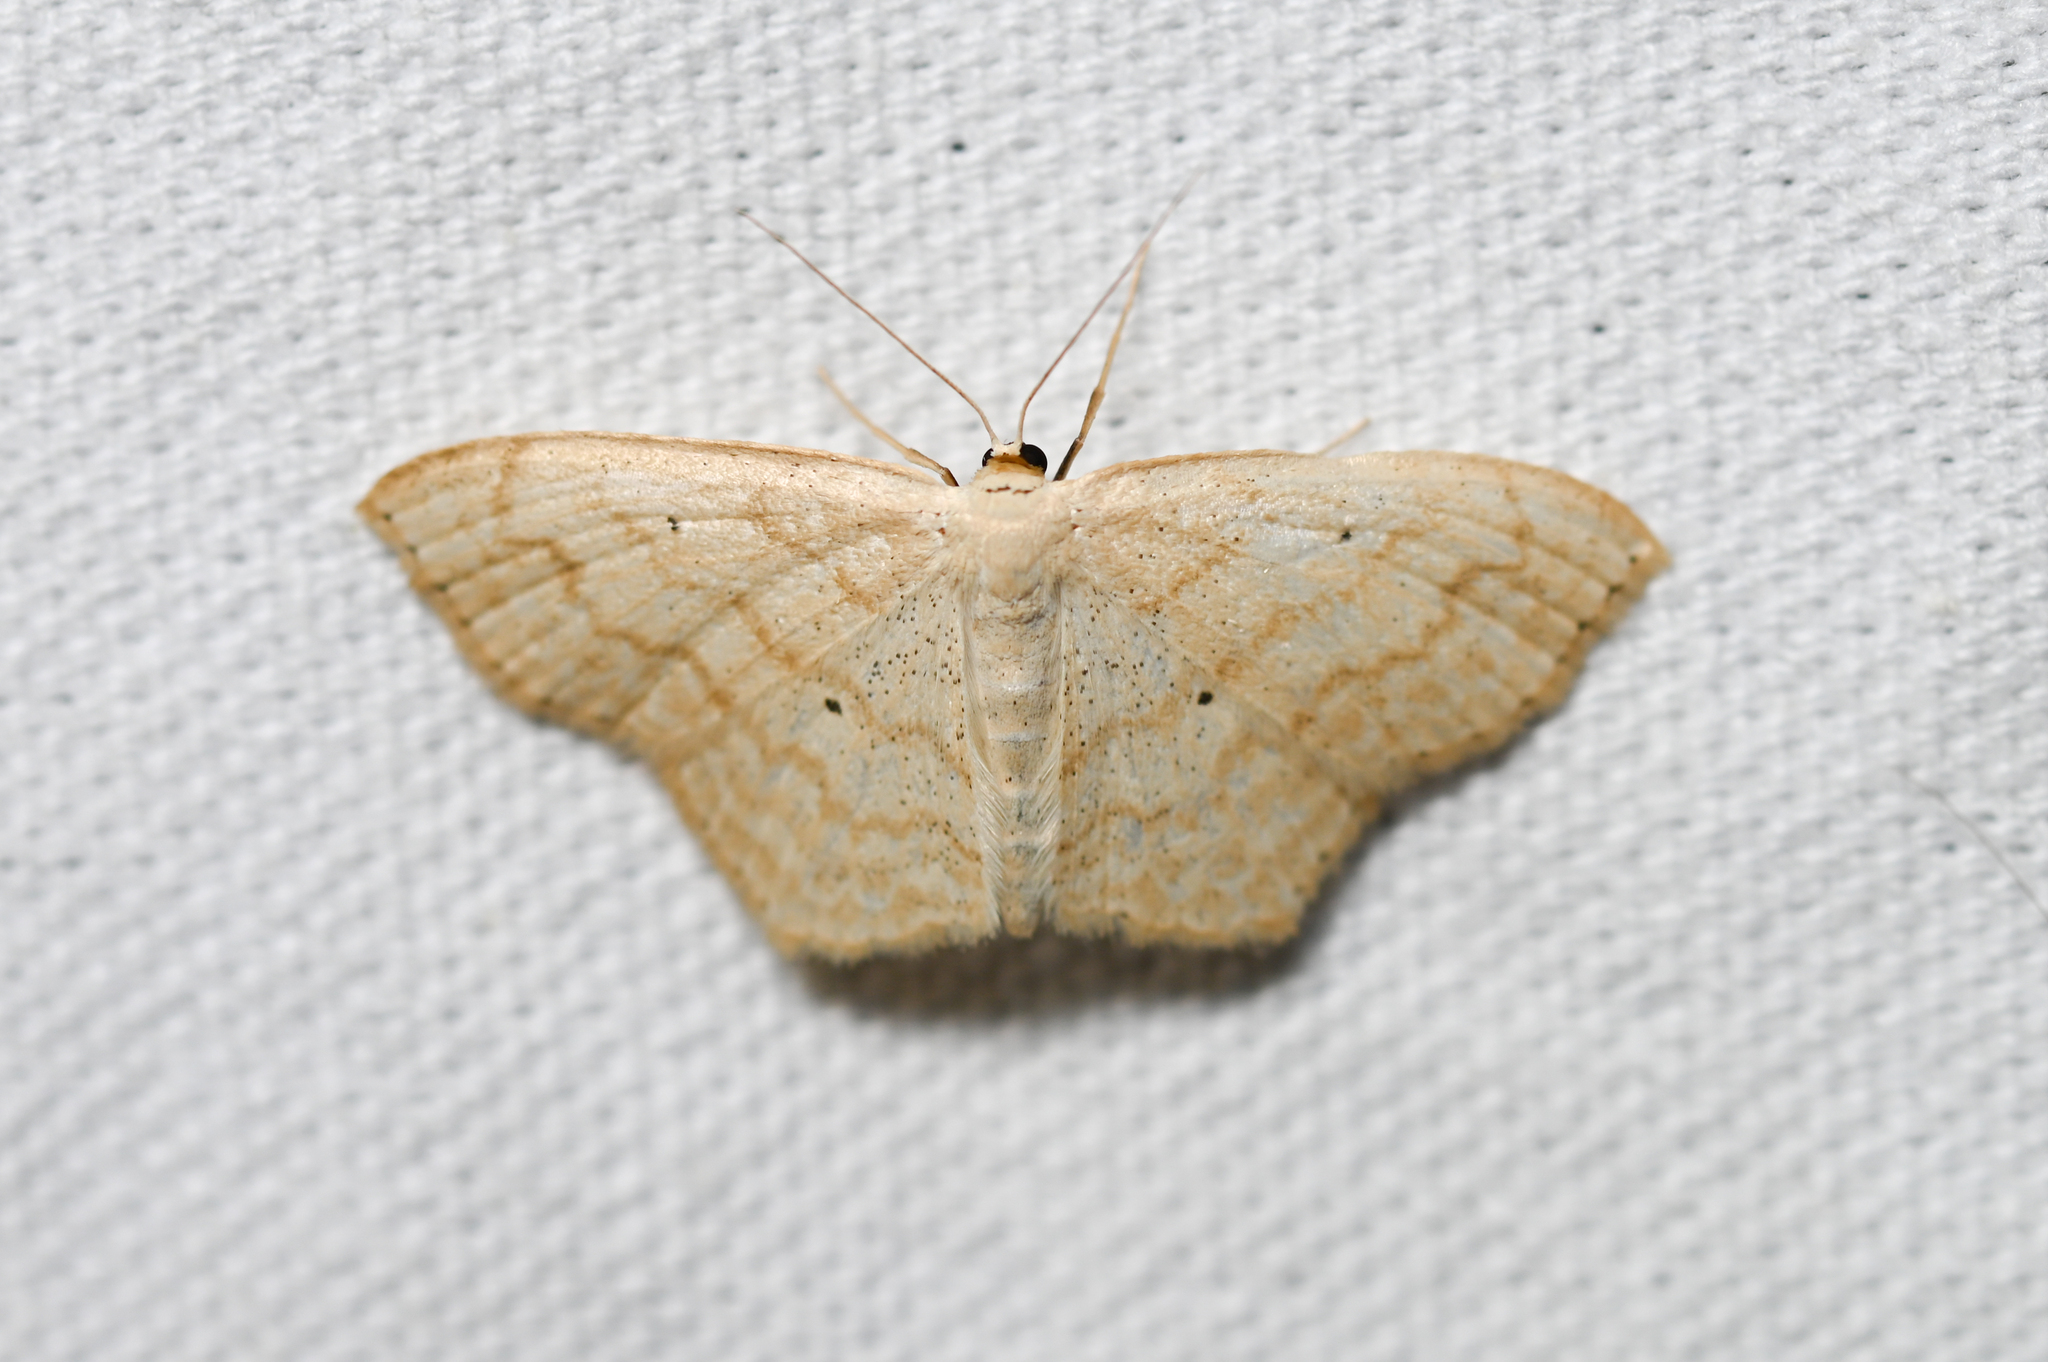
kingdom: Animalia
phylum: Arthropoda
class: Insecta
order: Lepidoptera
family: Geometridae
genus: Scopula
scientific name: Scopula limboundata
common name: Large lace border
